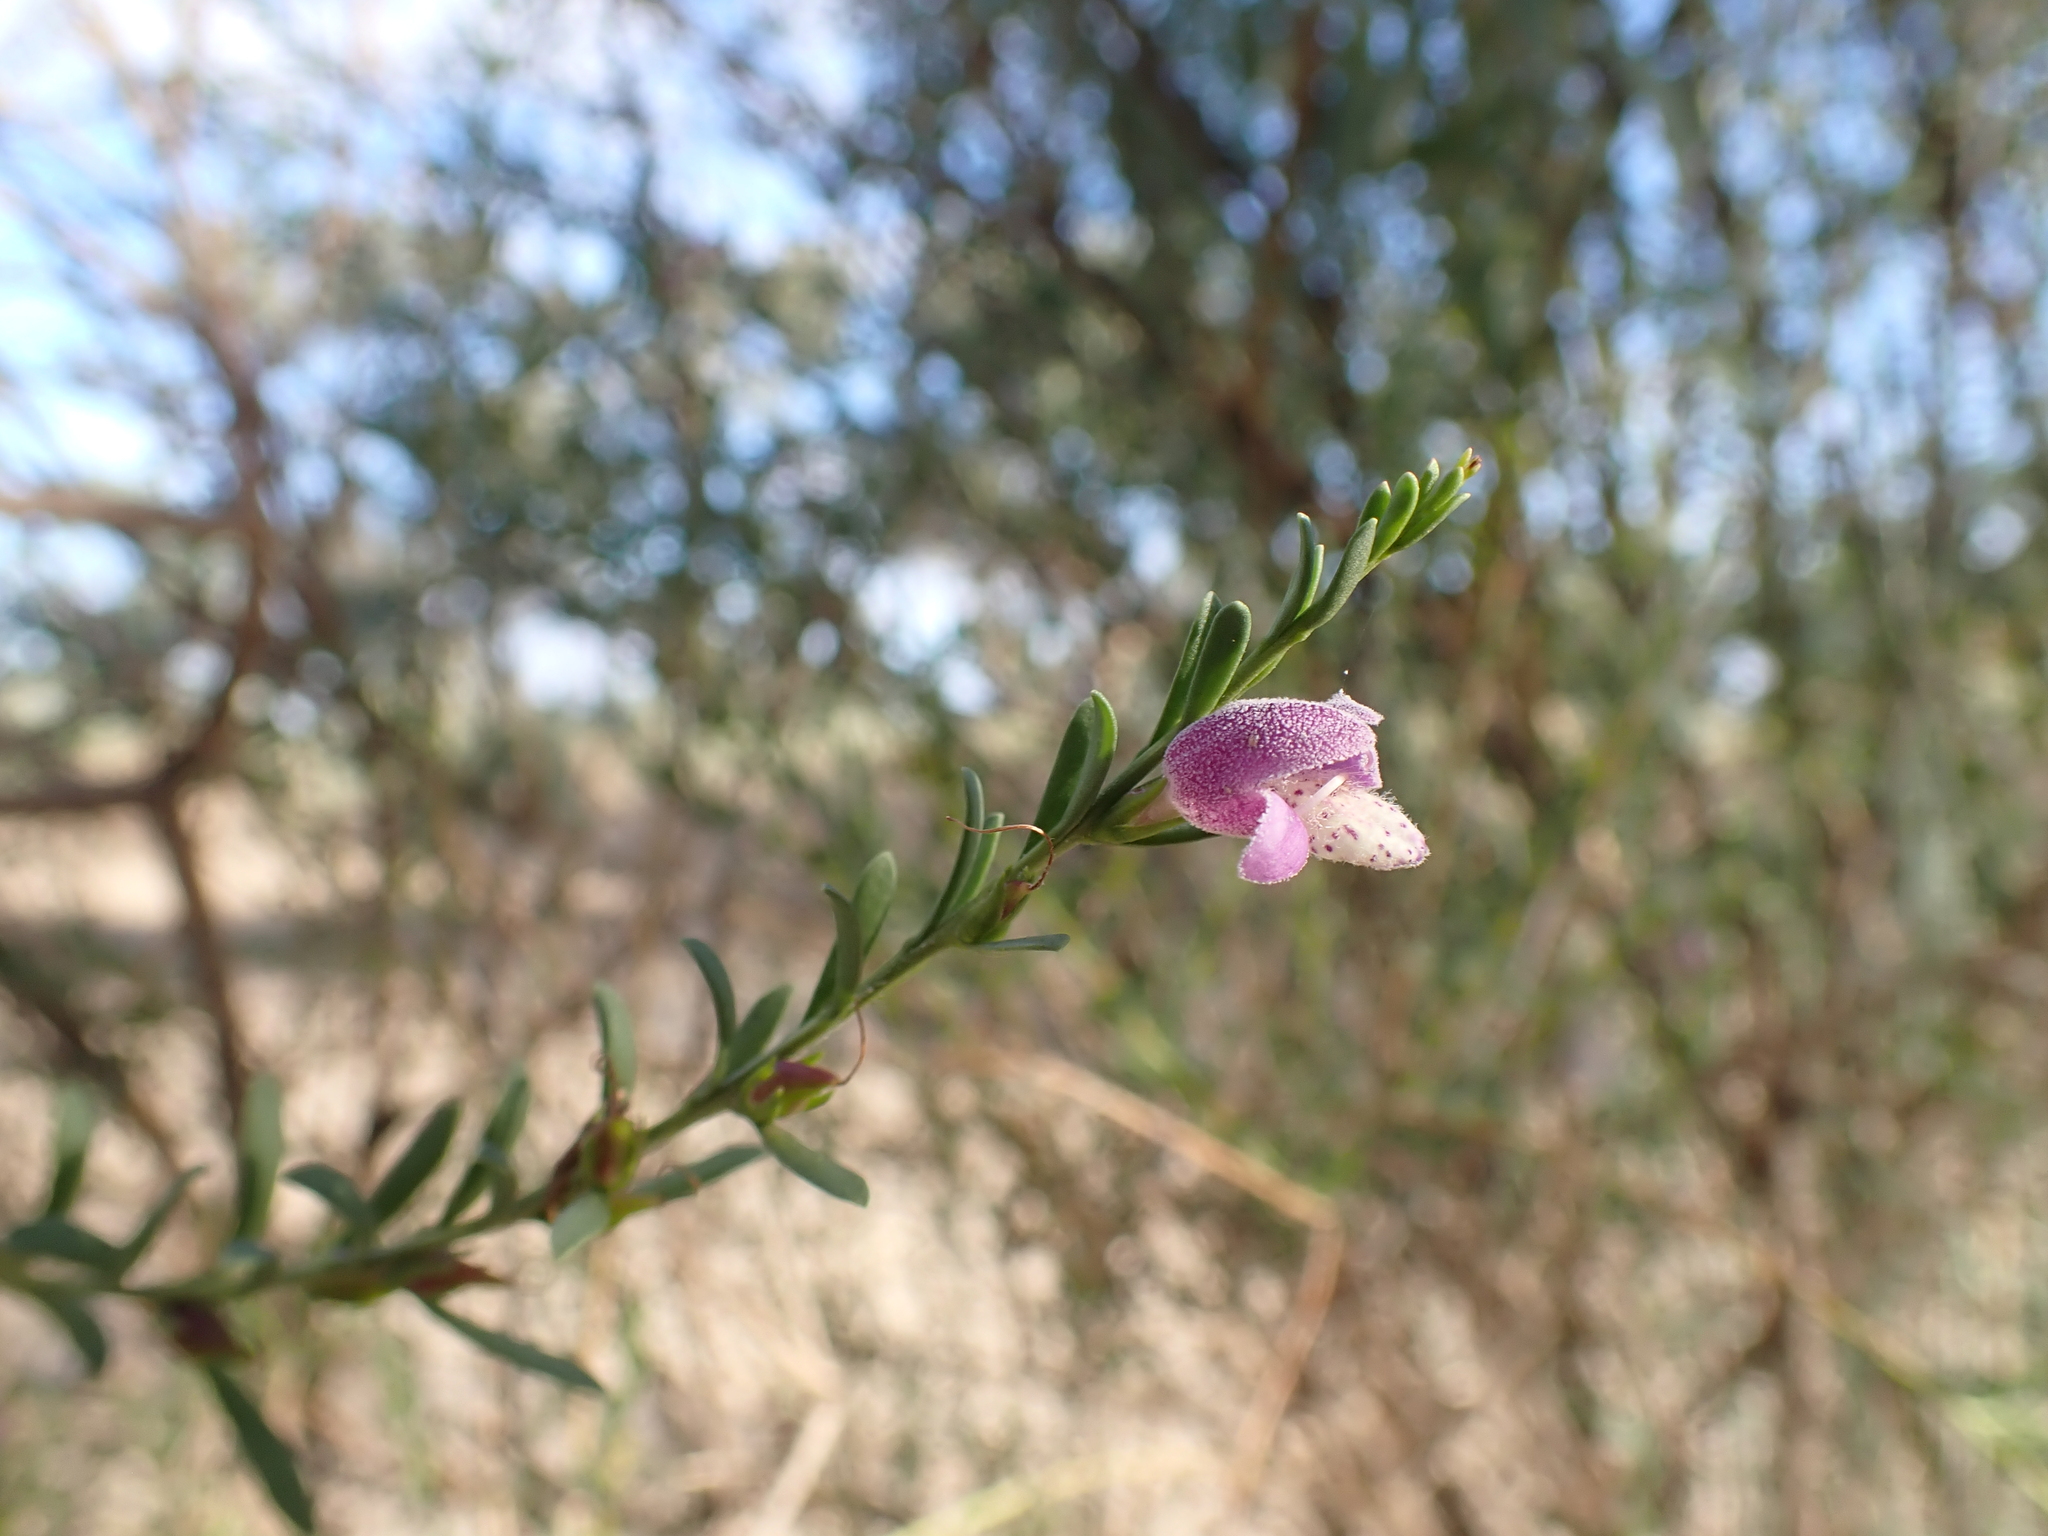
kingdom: Plantae
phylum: Tracheophyta
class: Magnoliopsida
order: Lamiales
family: Scrophulariaceae
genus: Eremophila
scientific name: Eremophila divaricata
